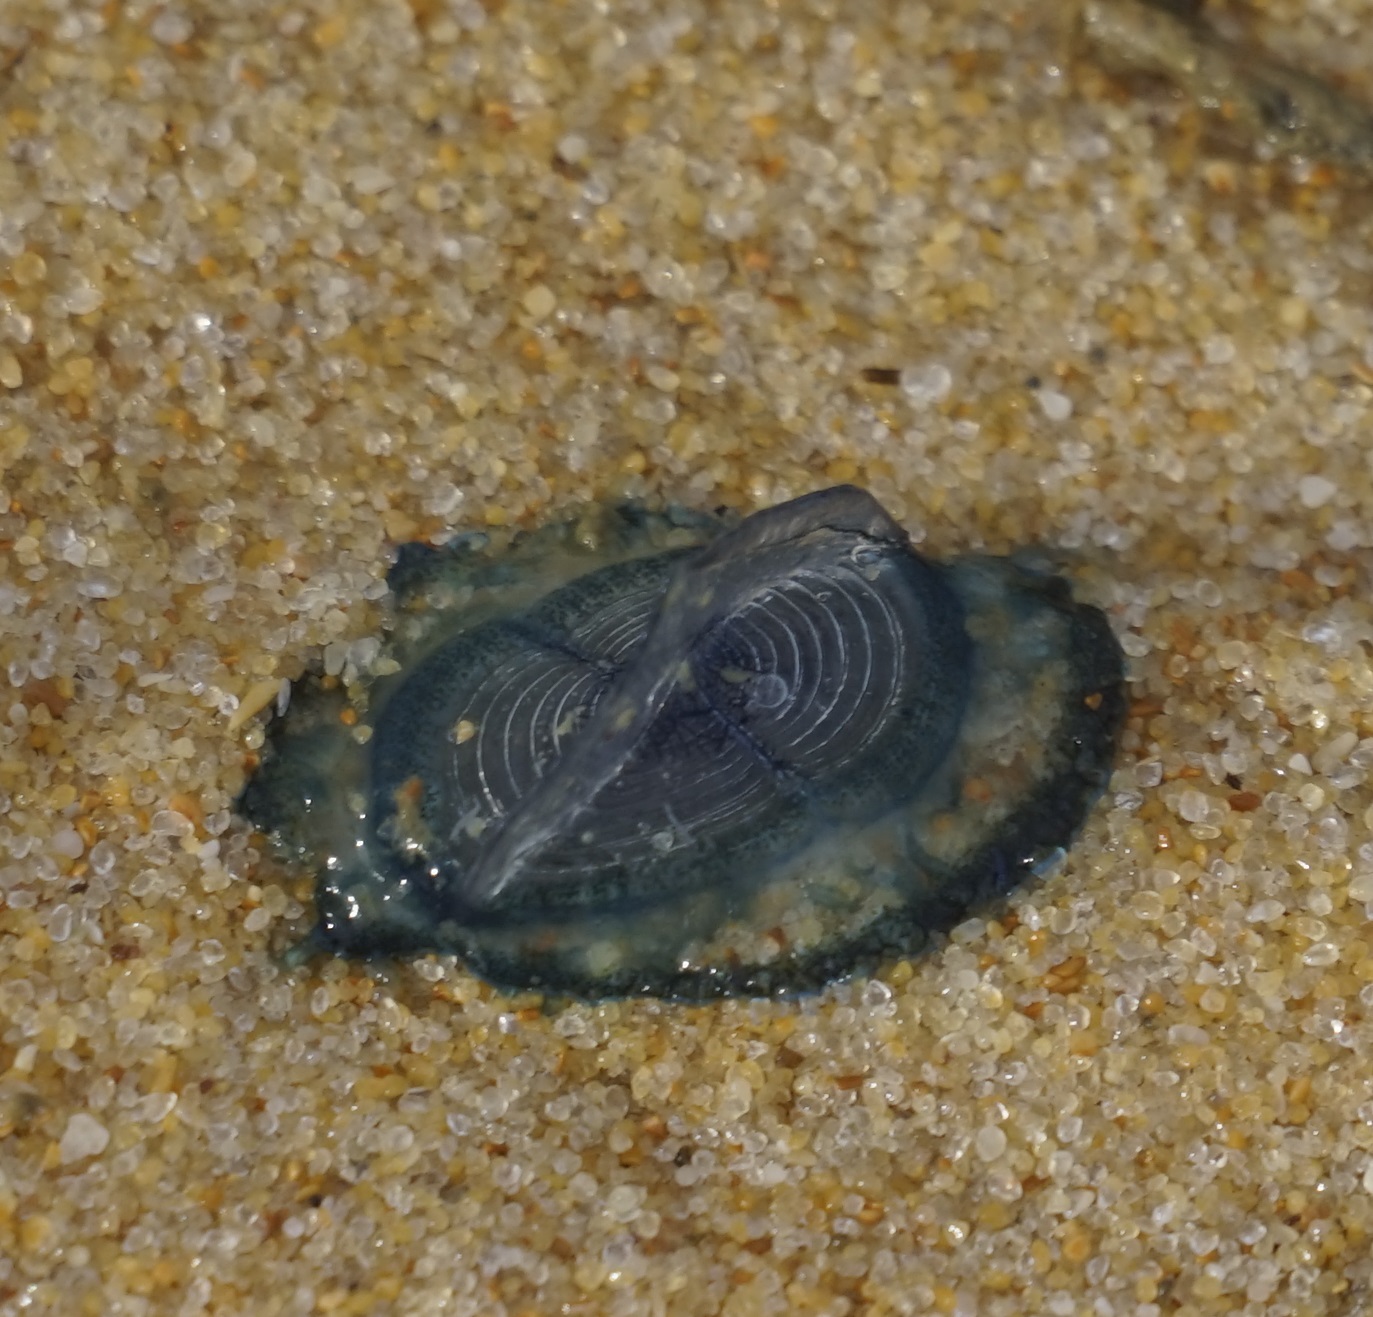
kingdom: Animalia
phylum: Cnidaria
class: Hydrozoa
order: Anthoathecata
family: Porpitidae
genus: Velella
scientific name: Velella velella
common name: By-the-wind-sailor
